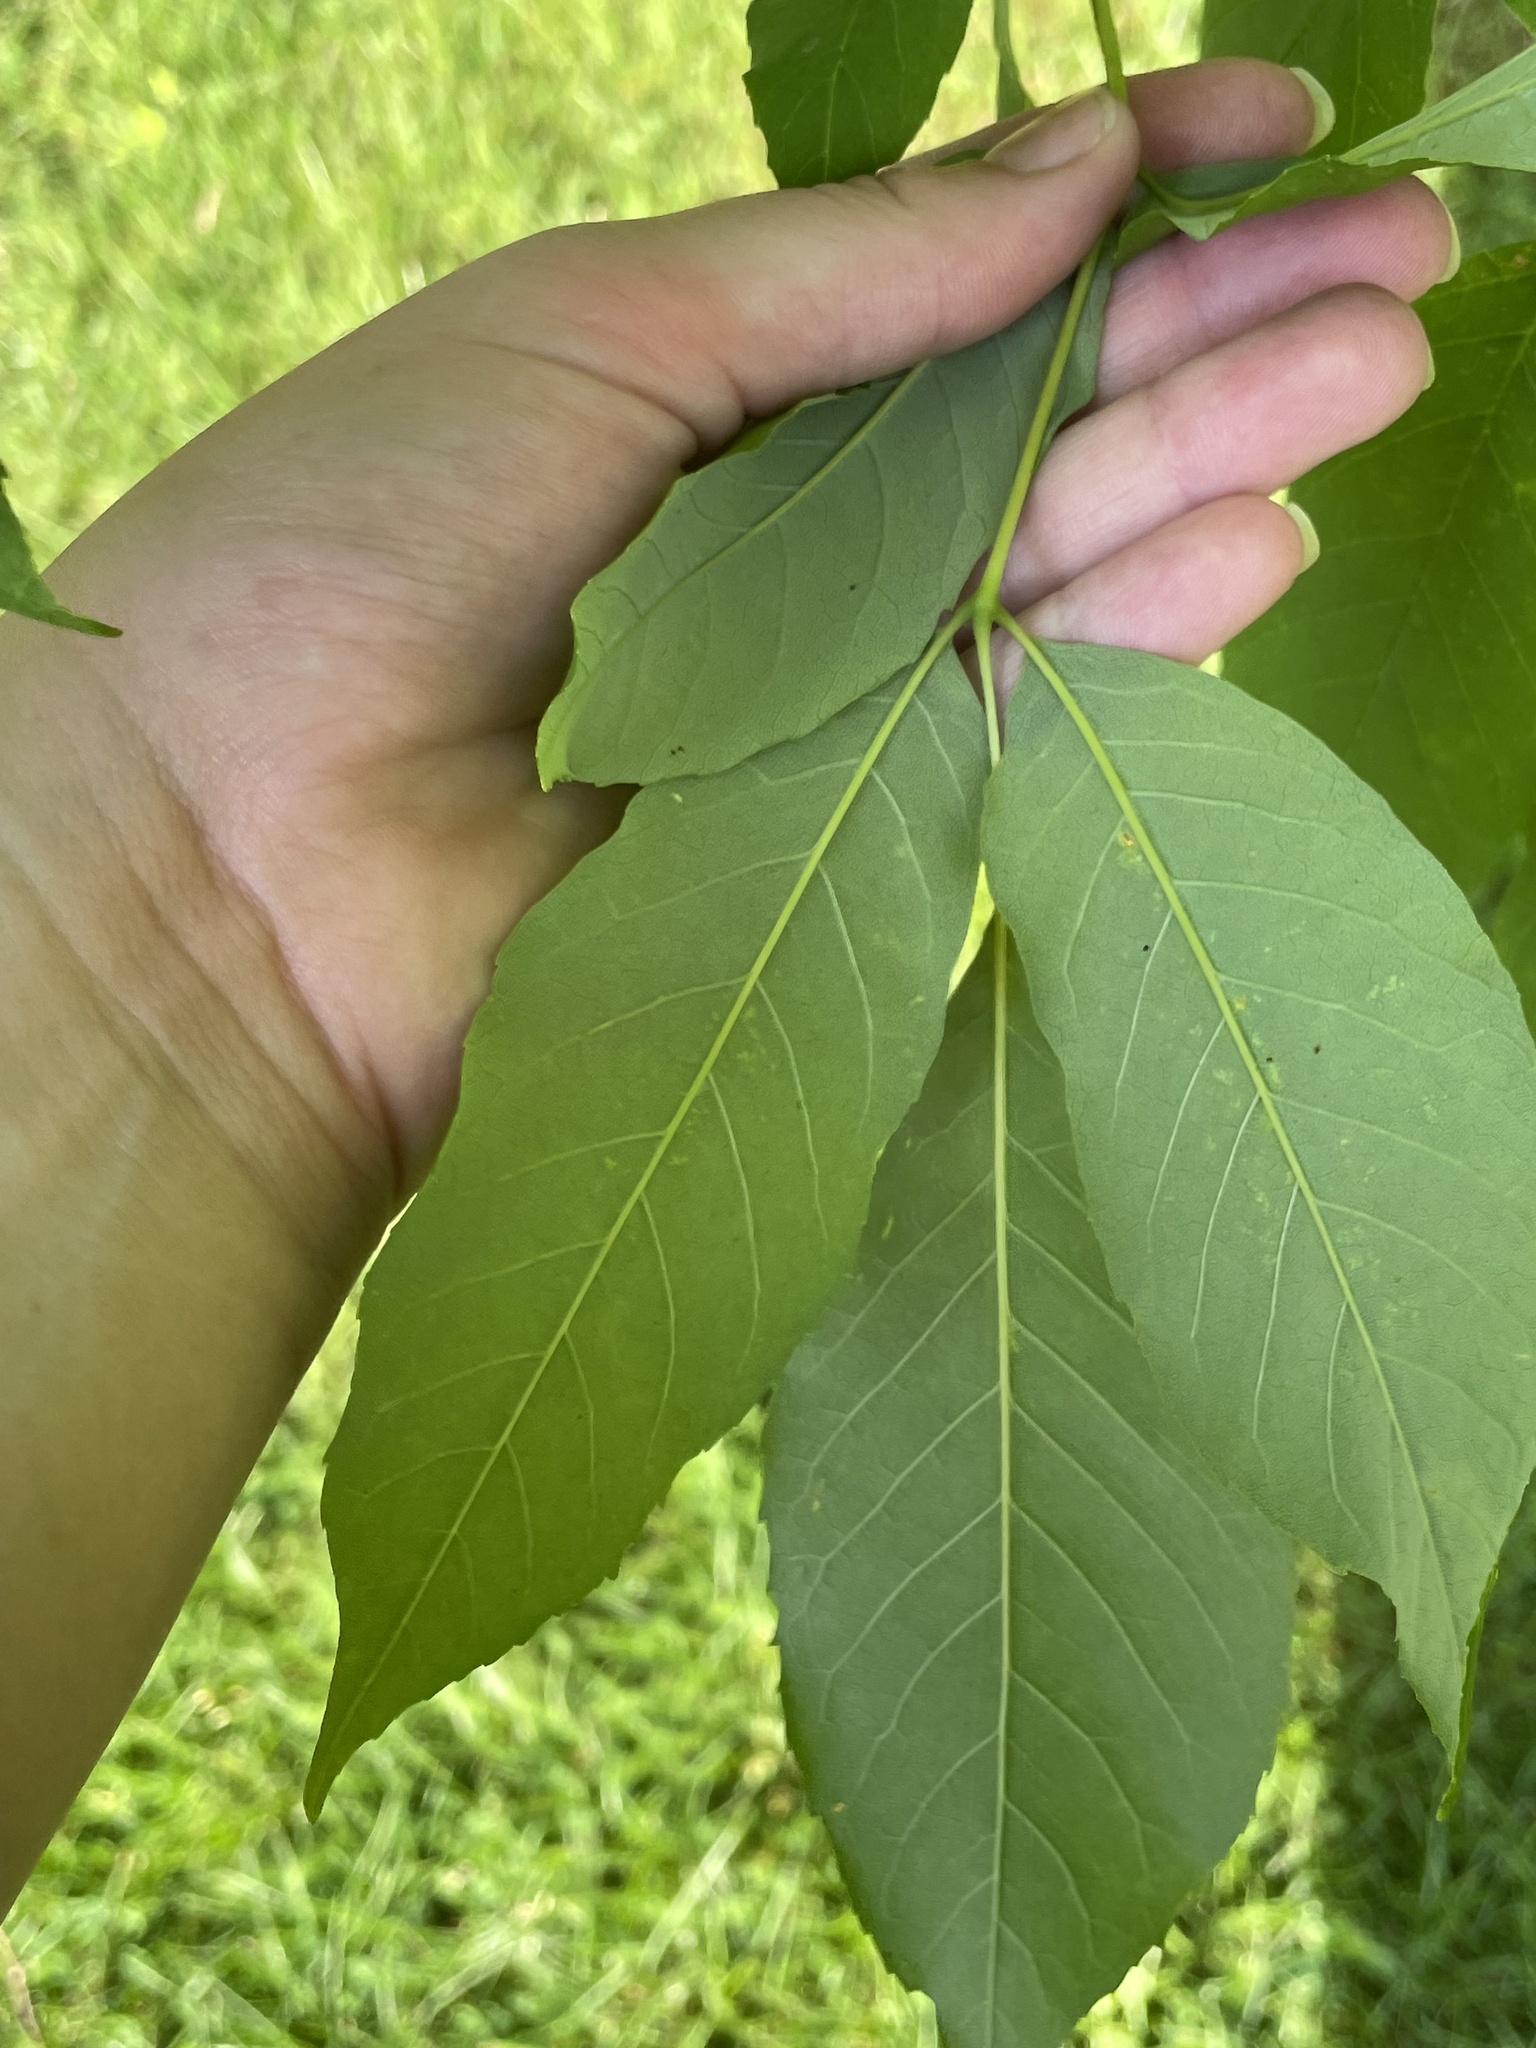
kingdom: Plantae
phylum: Tracheophyta
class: Magnoliopsida
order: Lamiales
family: Oleaceae
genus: Fraxinus
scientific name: Fraxinus americana
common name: White ash
